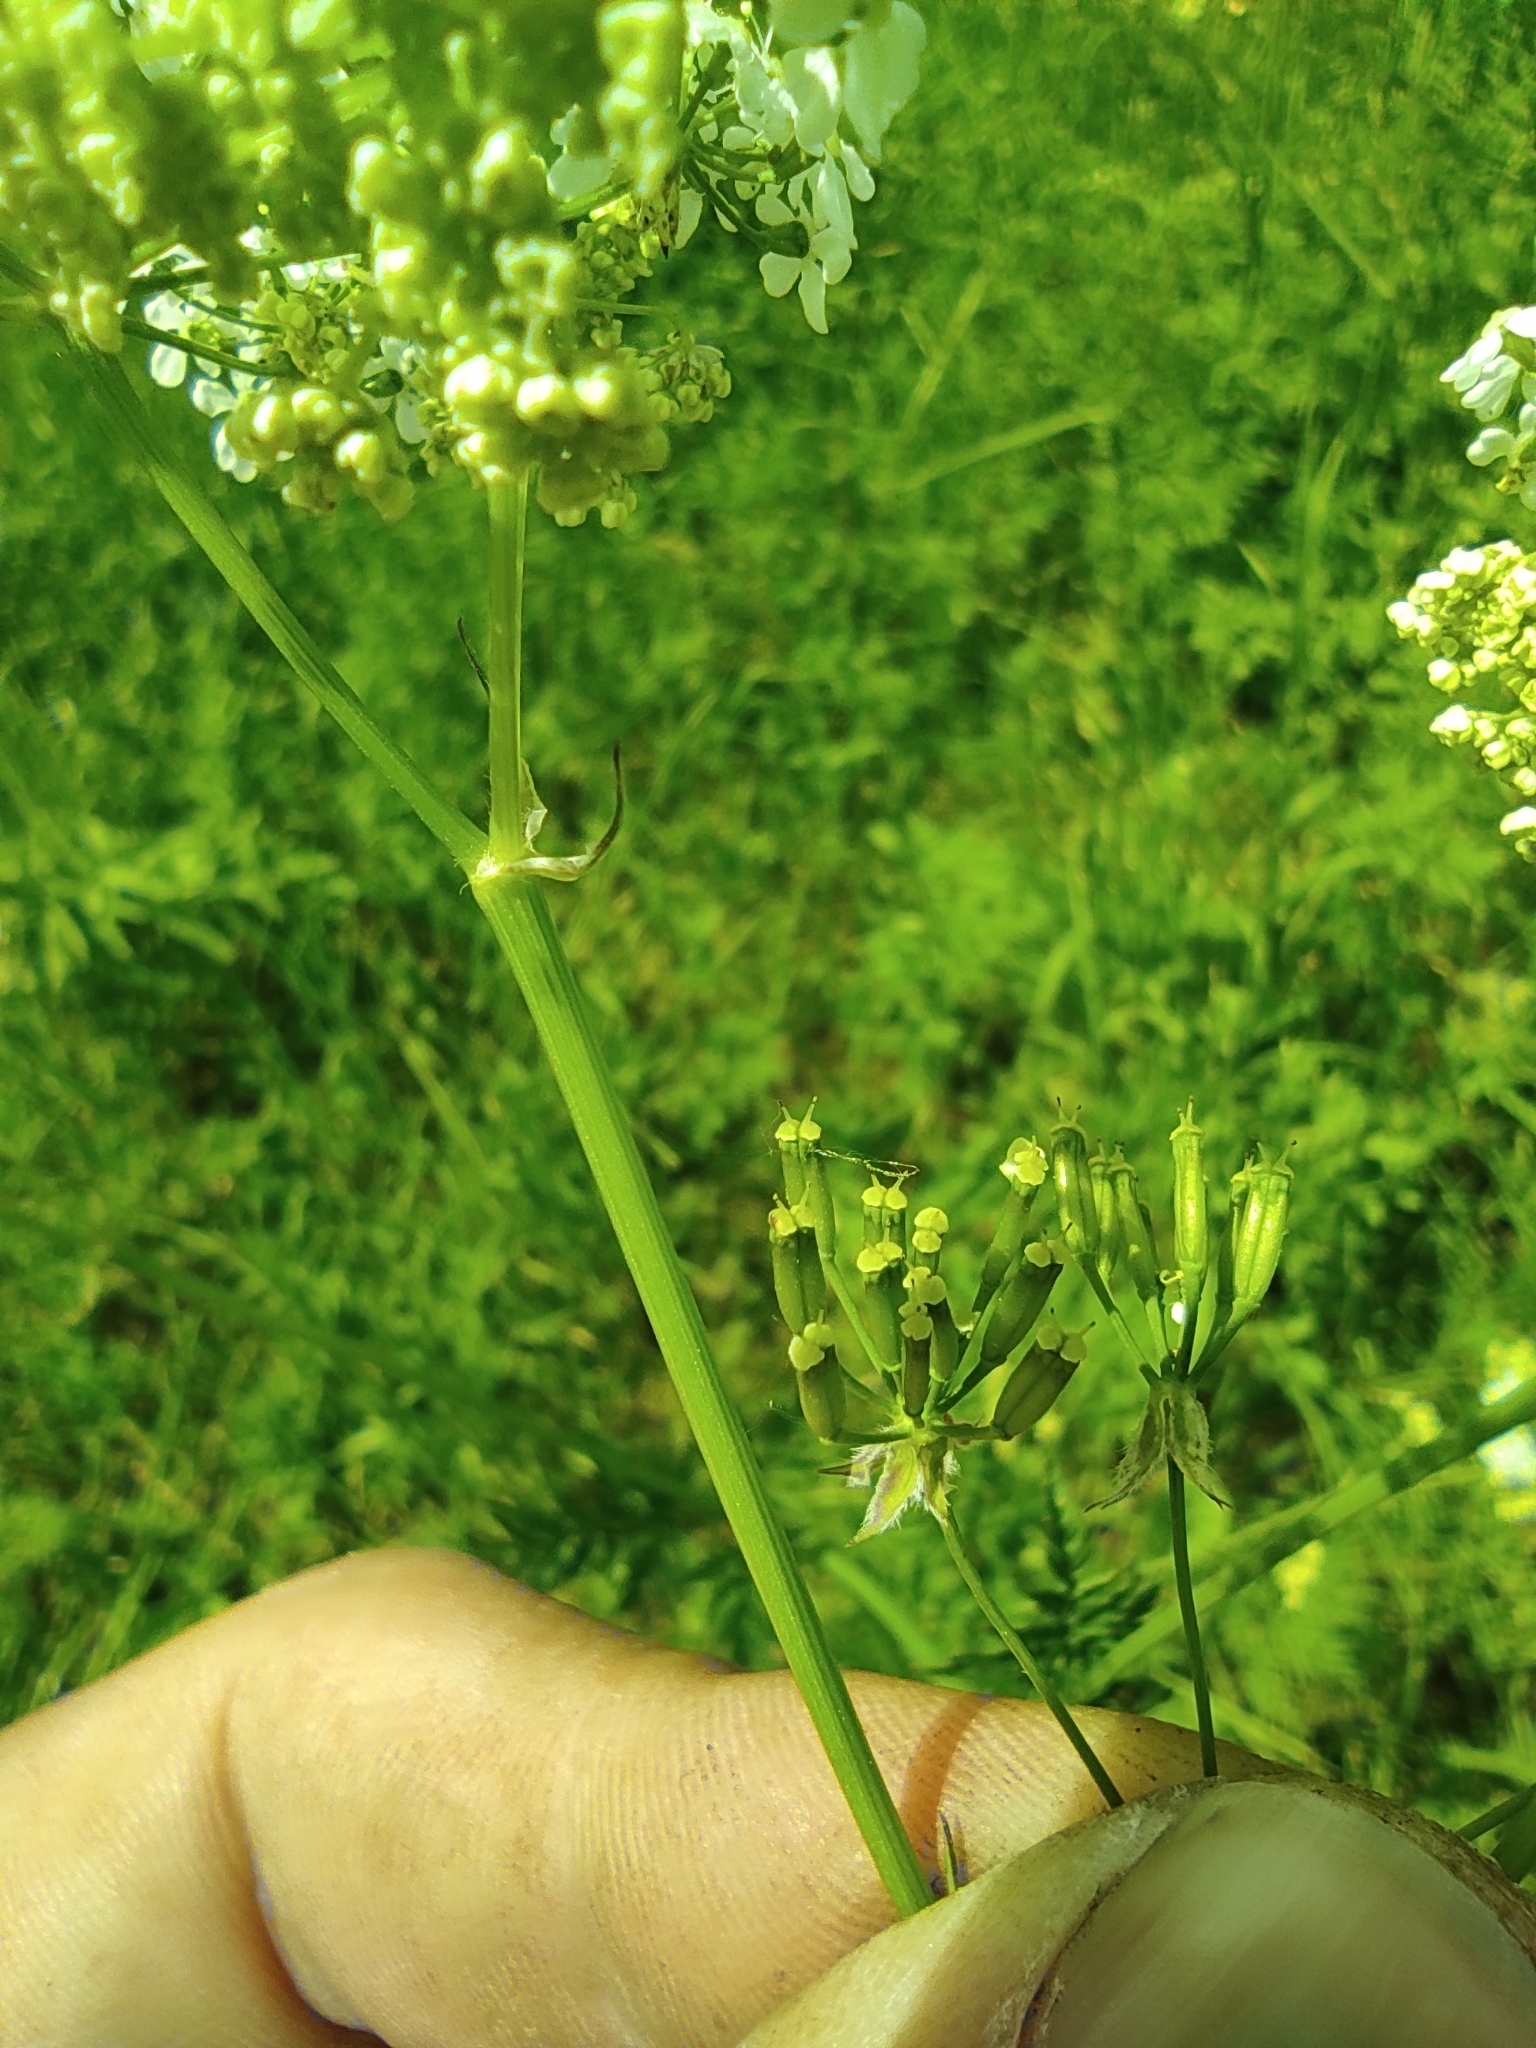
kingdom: Plantae
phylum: Tracheophyta
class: Magnoliopsida
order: Apiales
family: Apiaceae
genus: Anthriscus
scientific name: Anthriscus sylvestris
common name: Cow parsley
